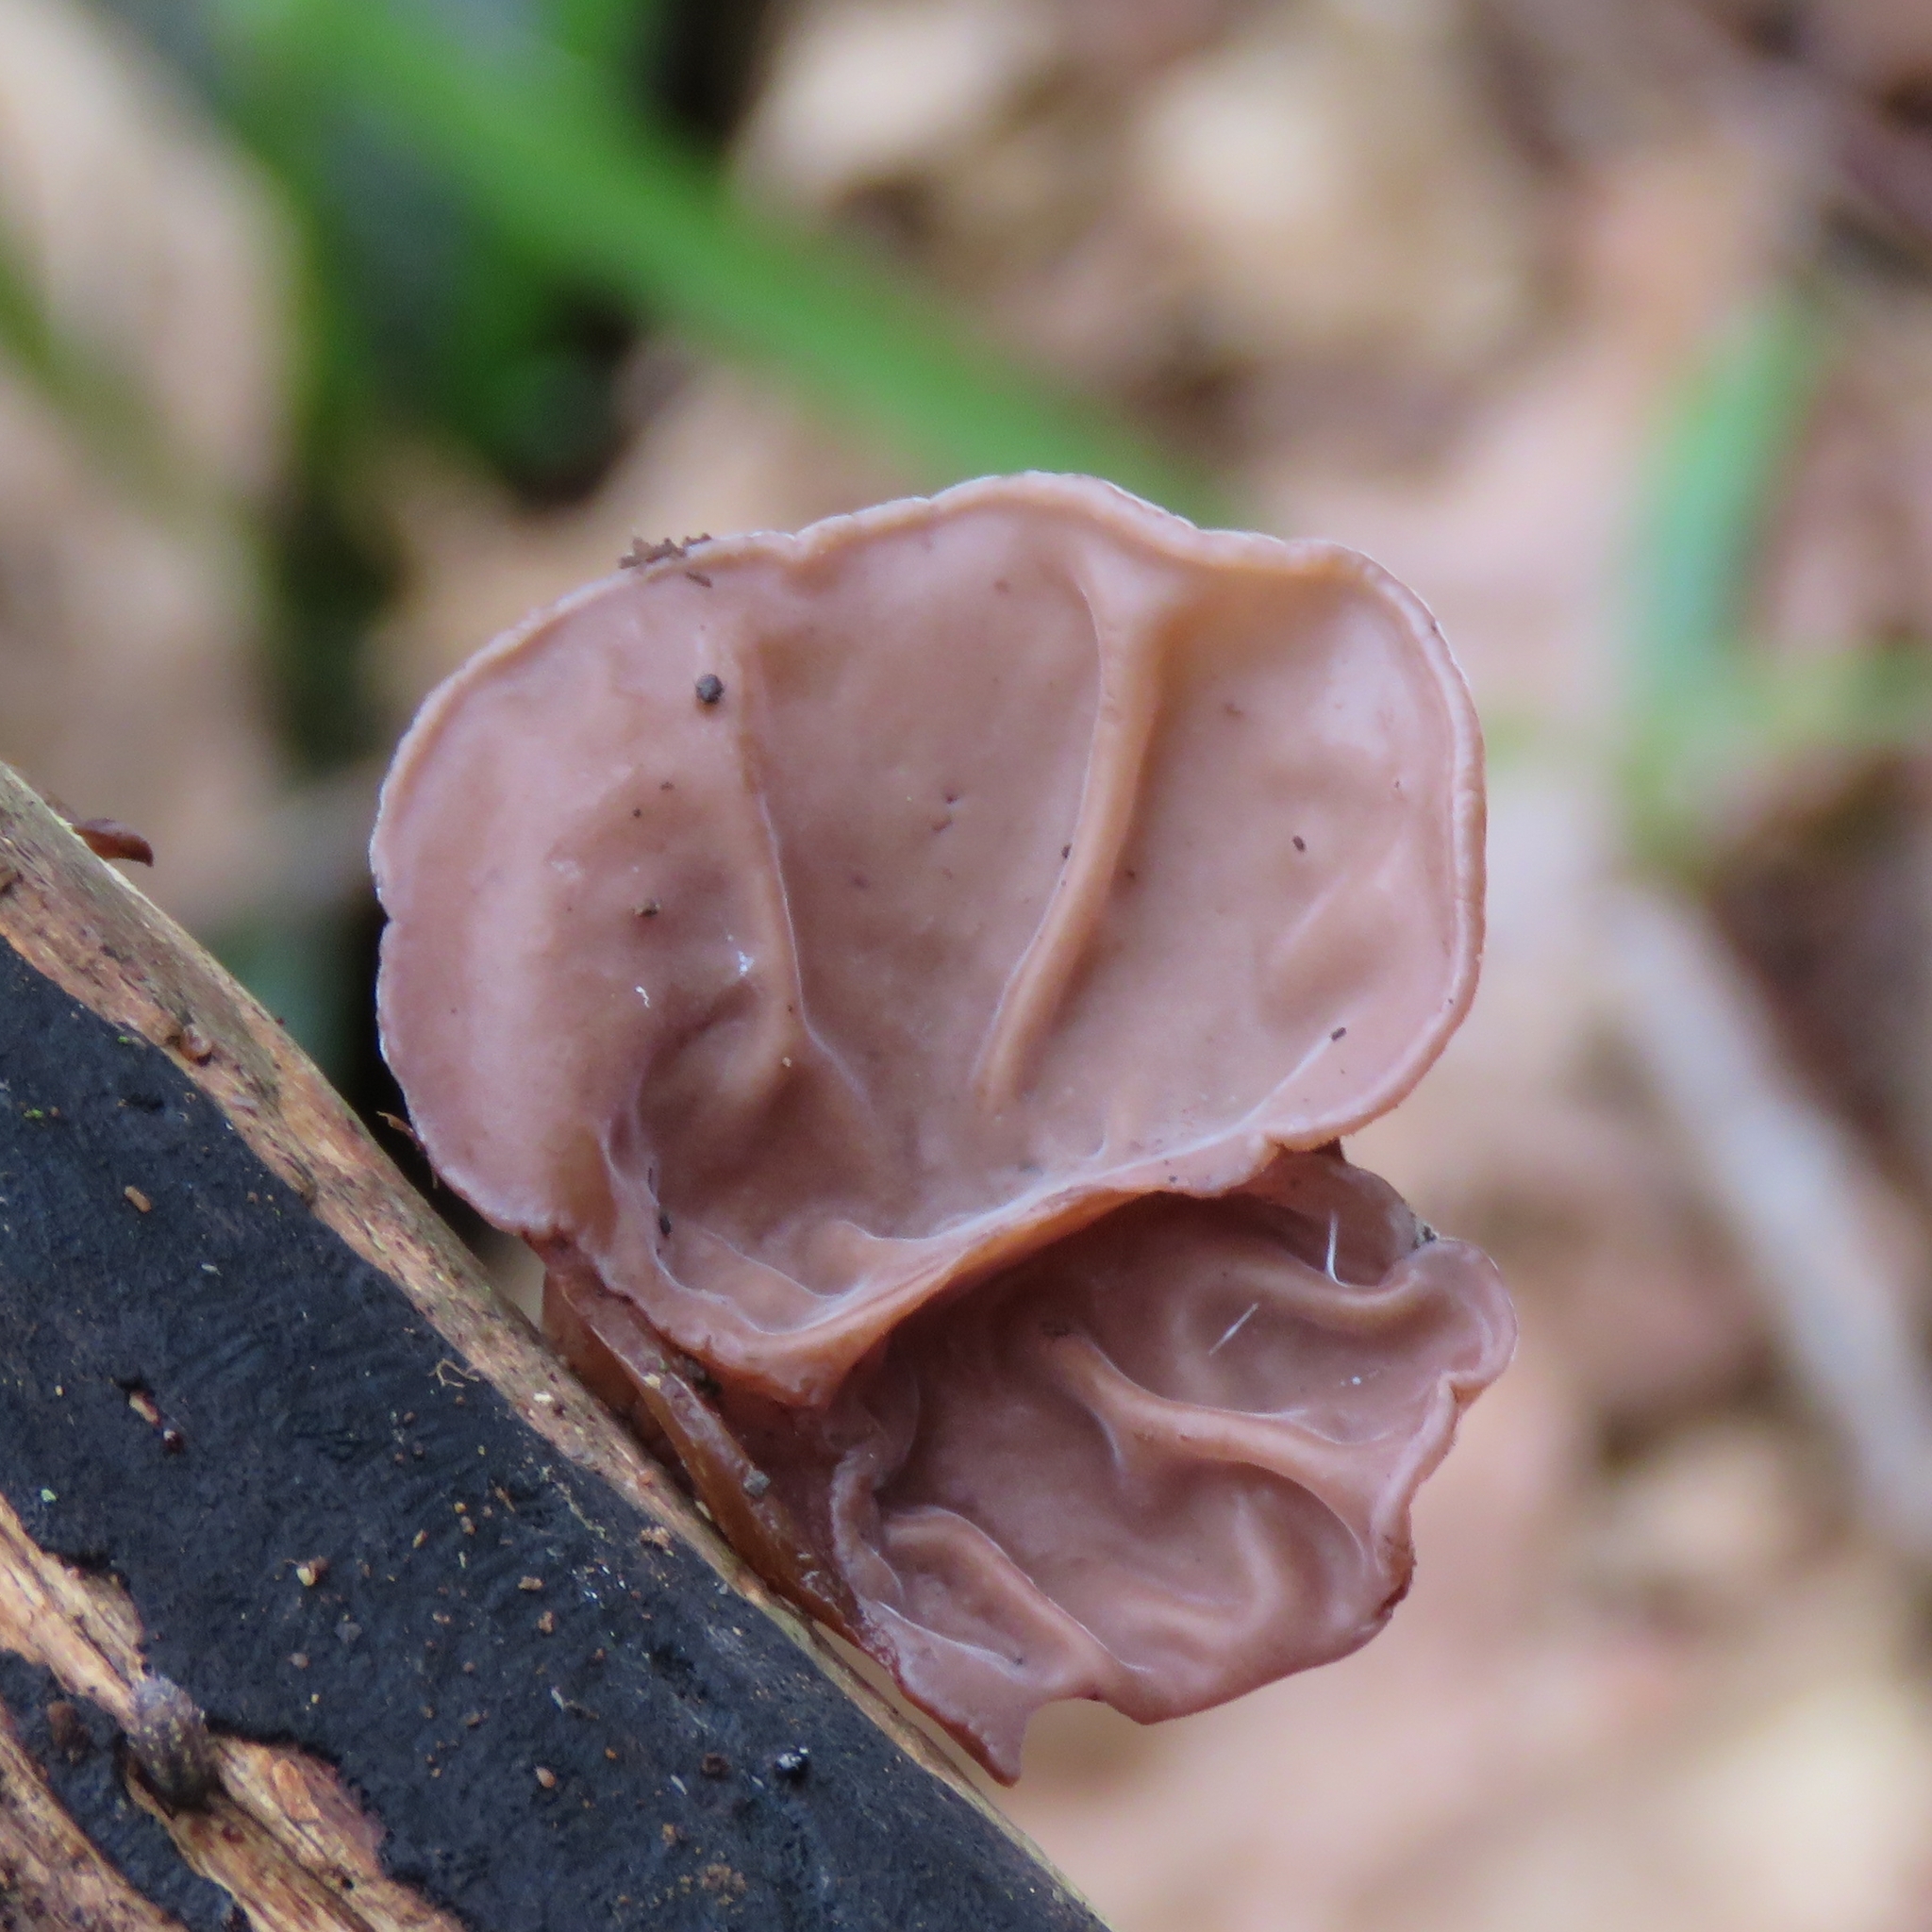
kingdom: Fungi
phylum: Basidiomycota
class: Agaricomycetes
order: Auriculariales
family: Auriculariaceae
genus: Auricularia
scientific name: Auricularia auricula-judae
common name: Jelly ear
